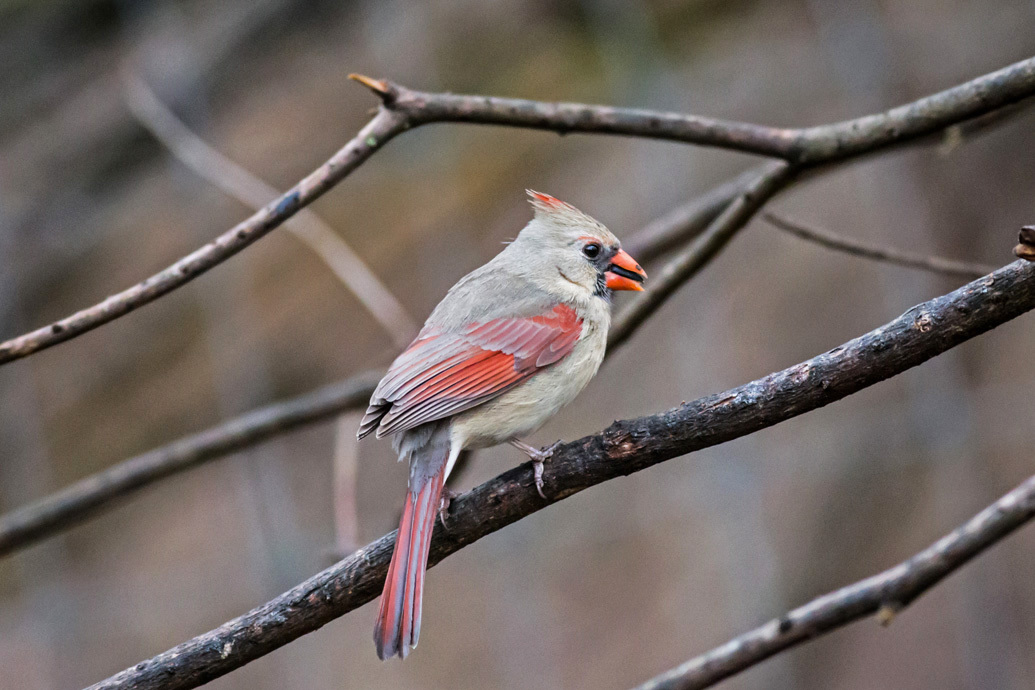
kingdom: Animalia
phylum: Chordata
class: Aves
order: Passeriformes
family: Cardinalidae
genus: Cardinalis
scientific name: Cardinalis cardinalis
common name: Northern cardinal
